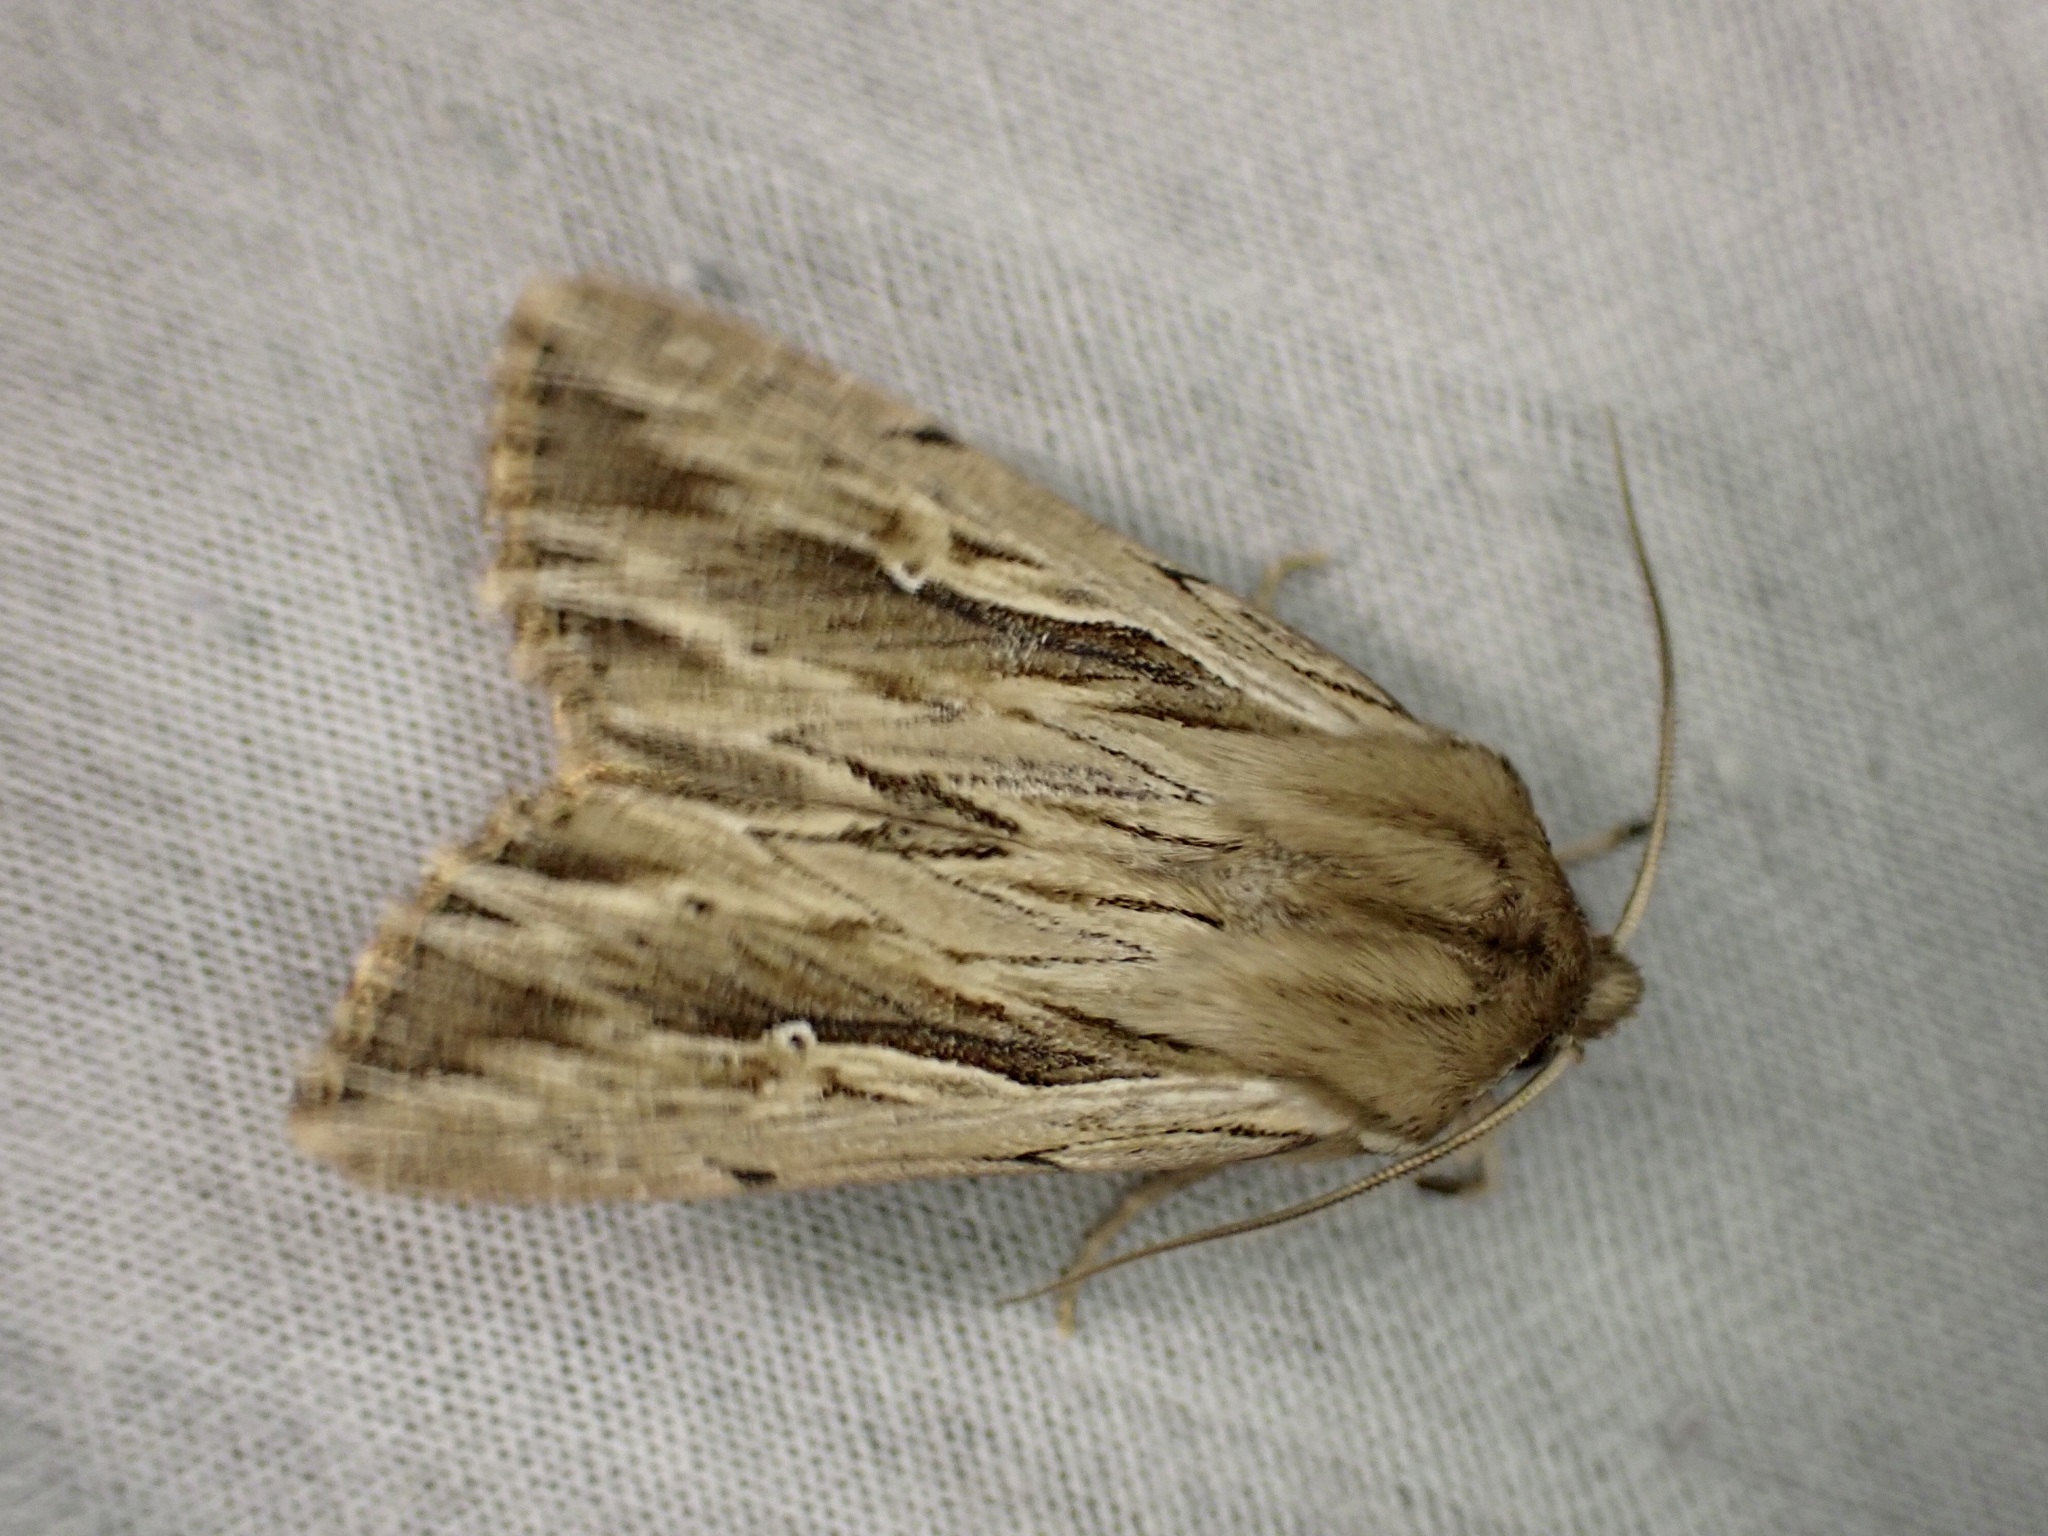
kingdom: Animalia
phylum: Arthropoda
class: Insecta
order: Lepidoptera
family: Noctuidae
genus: Persectania
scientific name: Persectania aversa
